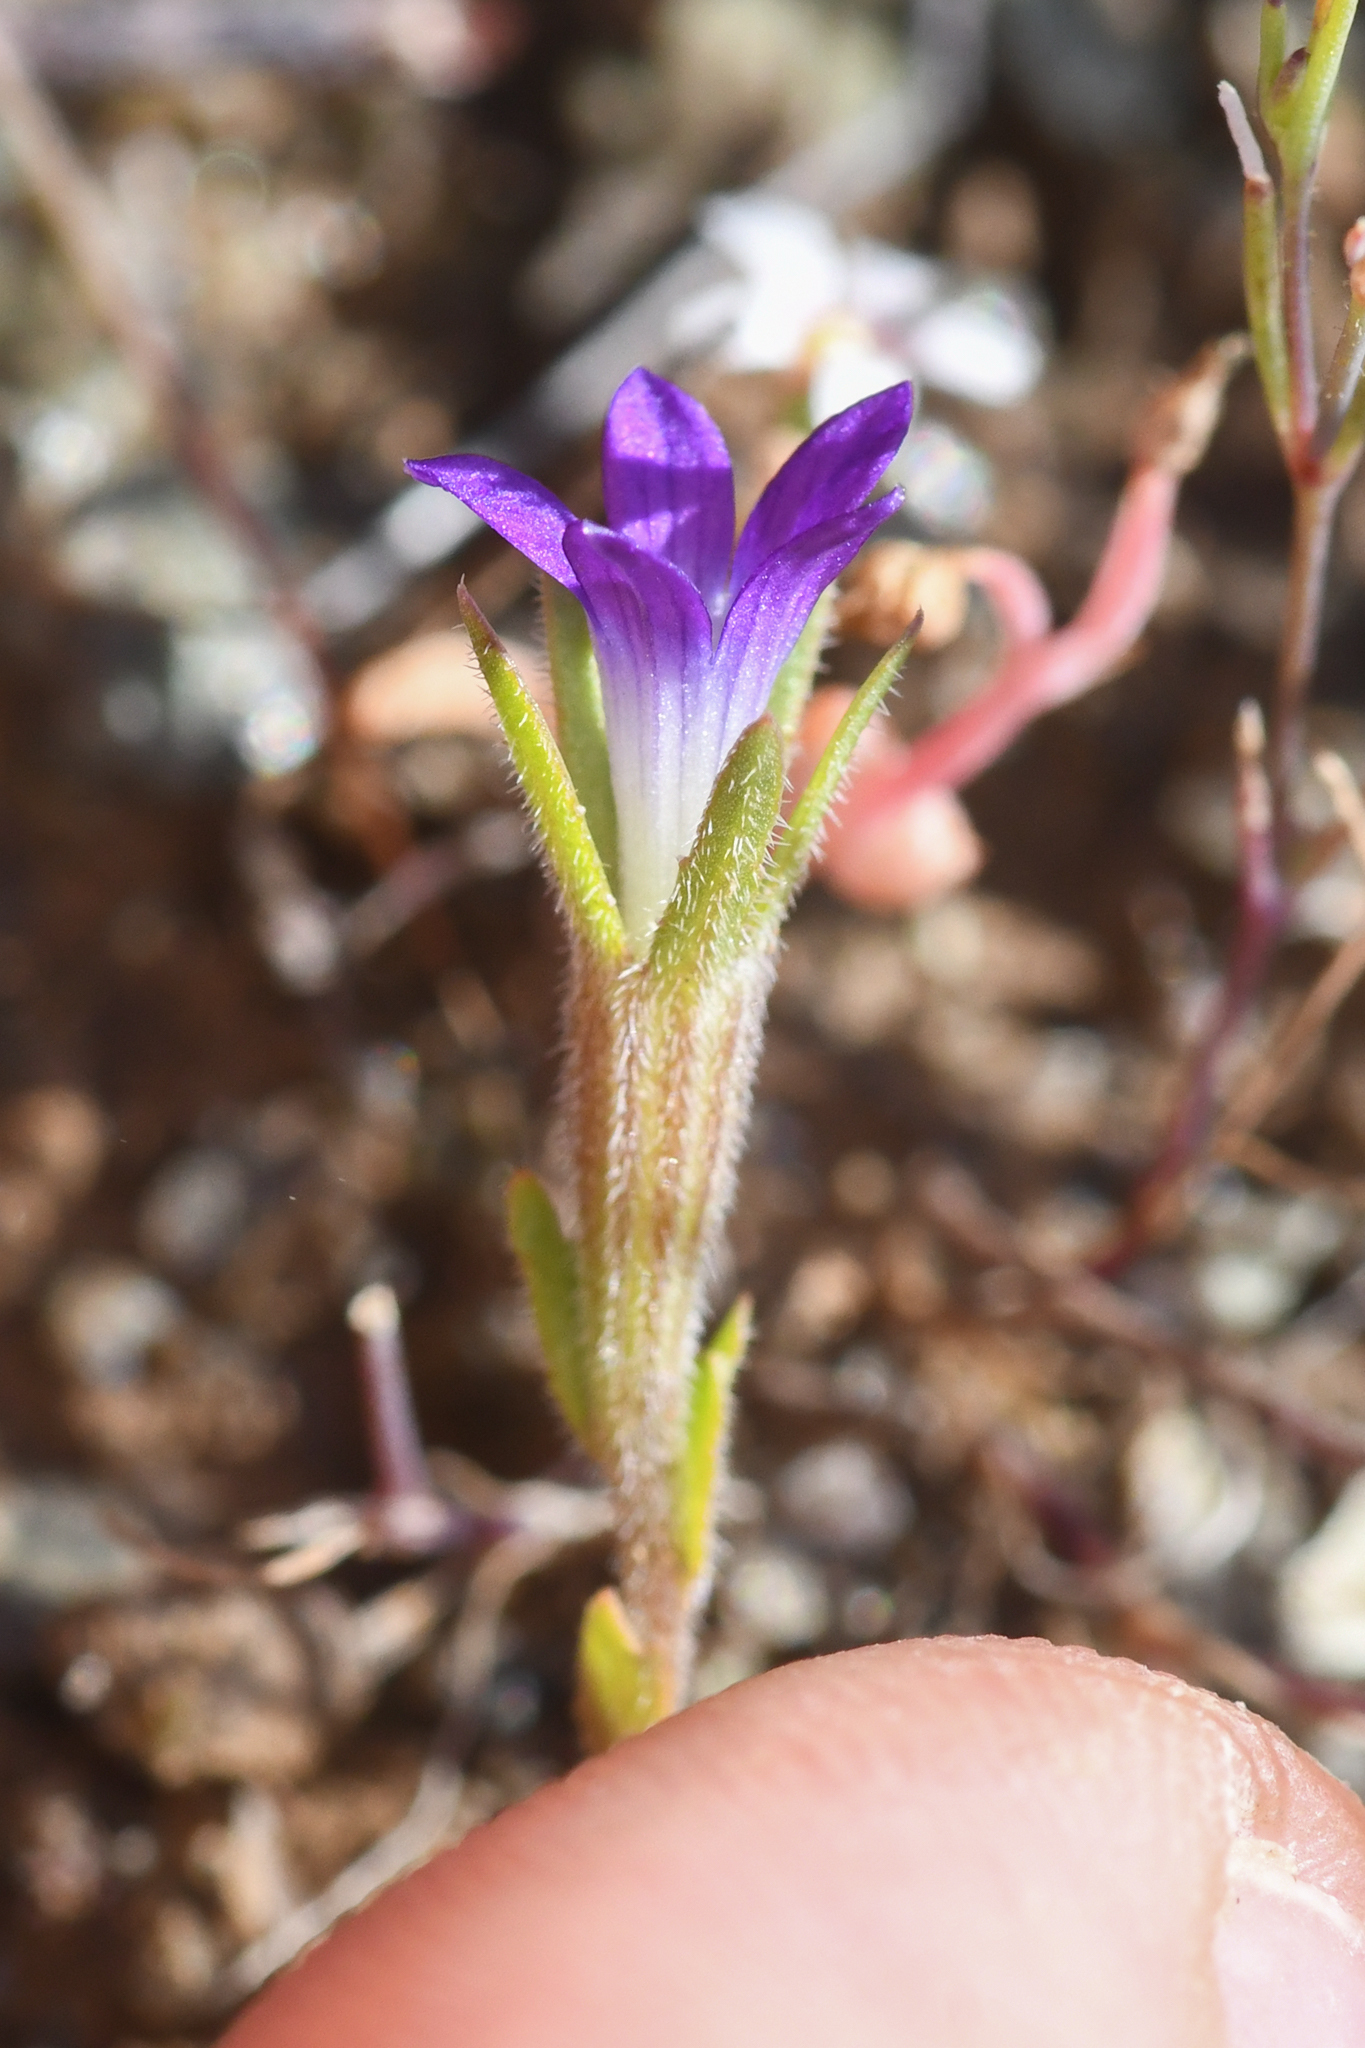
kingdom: Plantae
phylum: Tracheophyta
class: Magnoliopsida
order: Asterales
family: Campanulaceae
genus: Githopsis
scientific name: Githopsis specularioides
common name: Common bluecup
